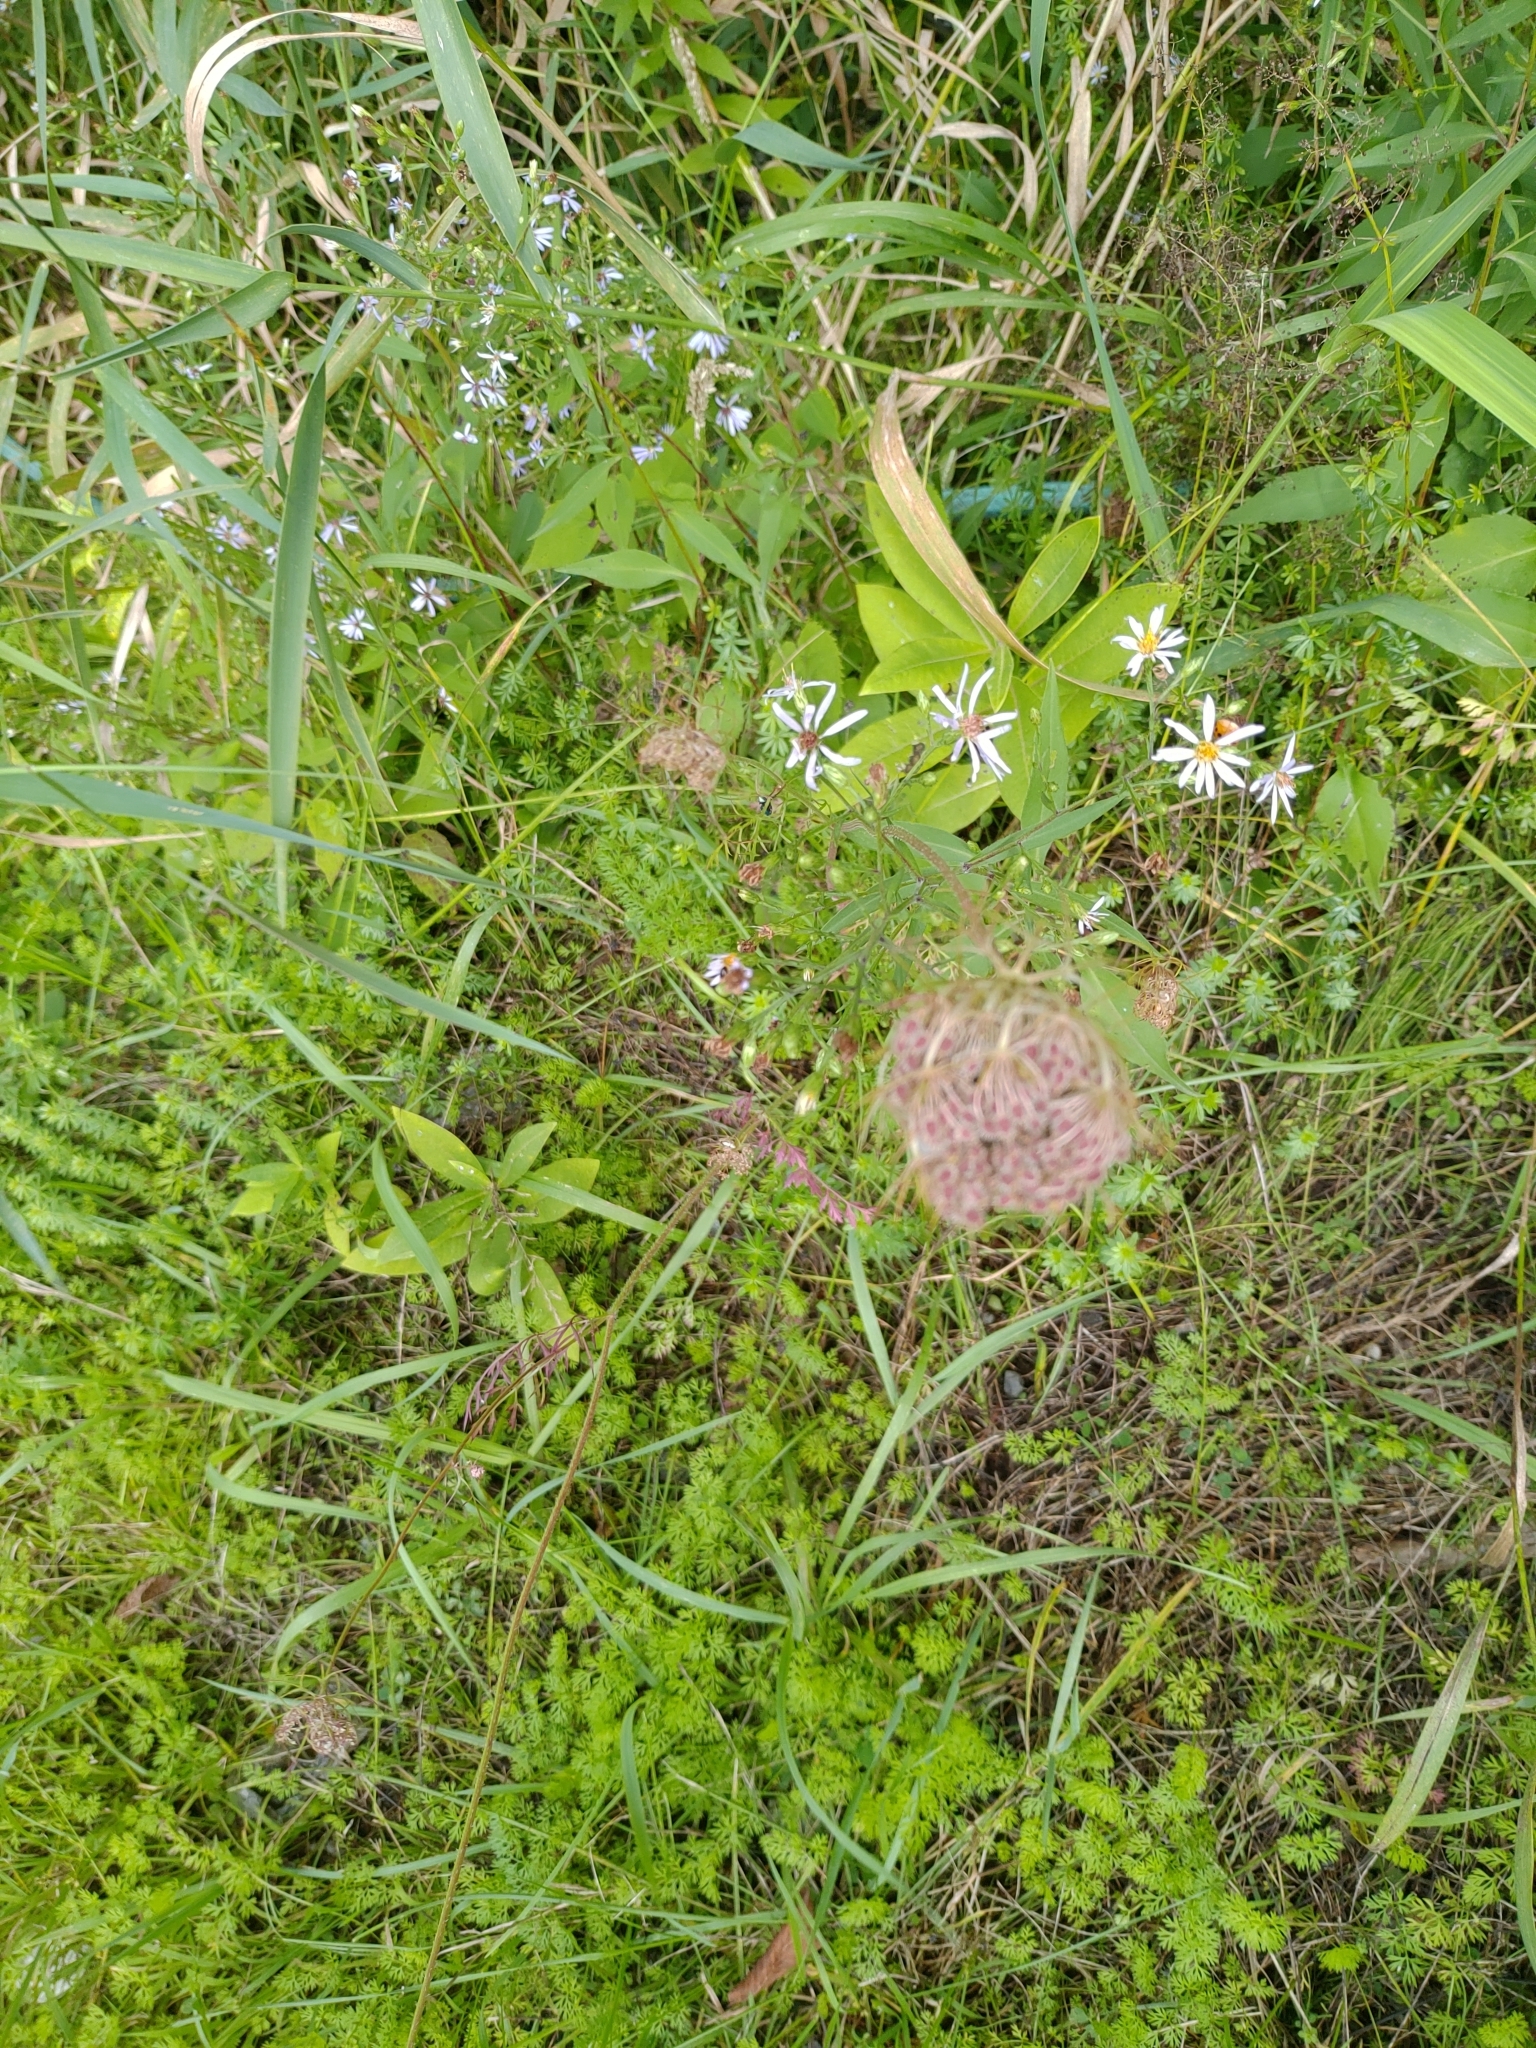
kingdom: Plantae
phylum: Tracheophyta
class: Magnoliopsida
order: Apiales
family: Apiaceae
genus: Daucus
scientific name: Daucus carota
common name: Wild carrot
